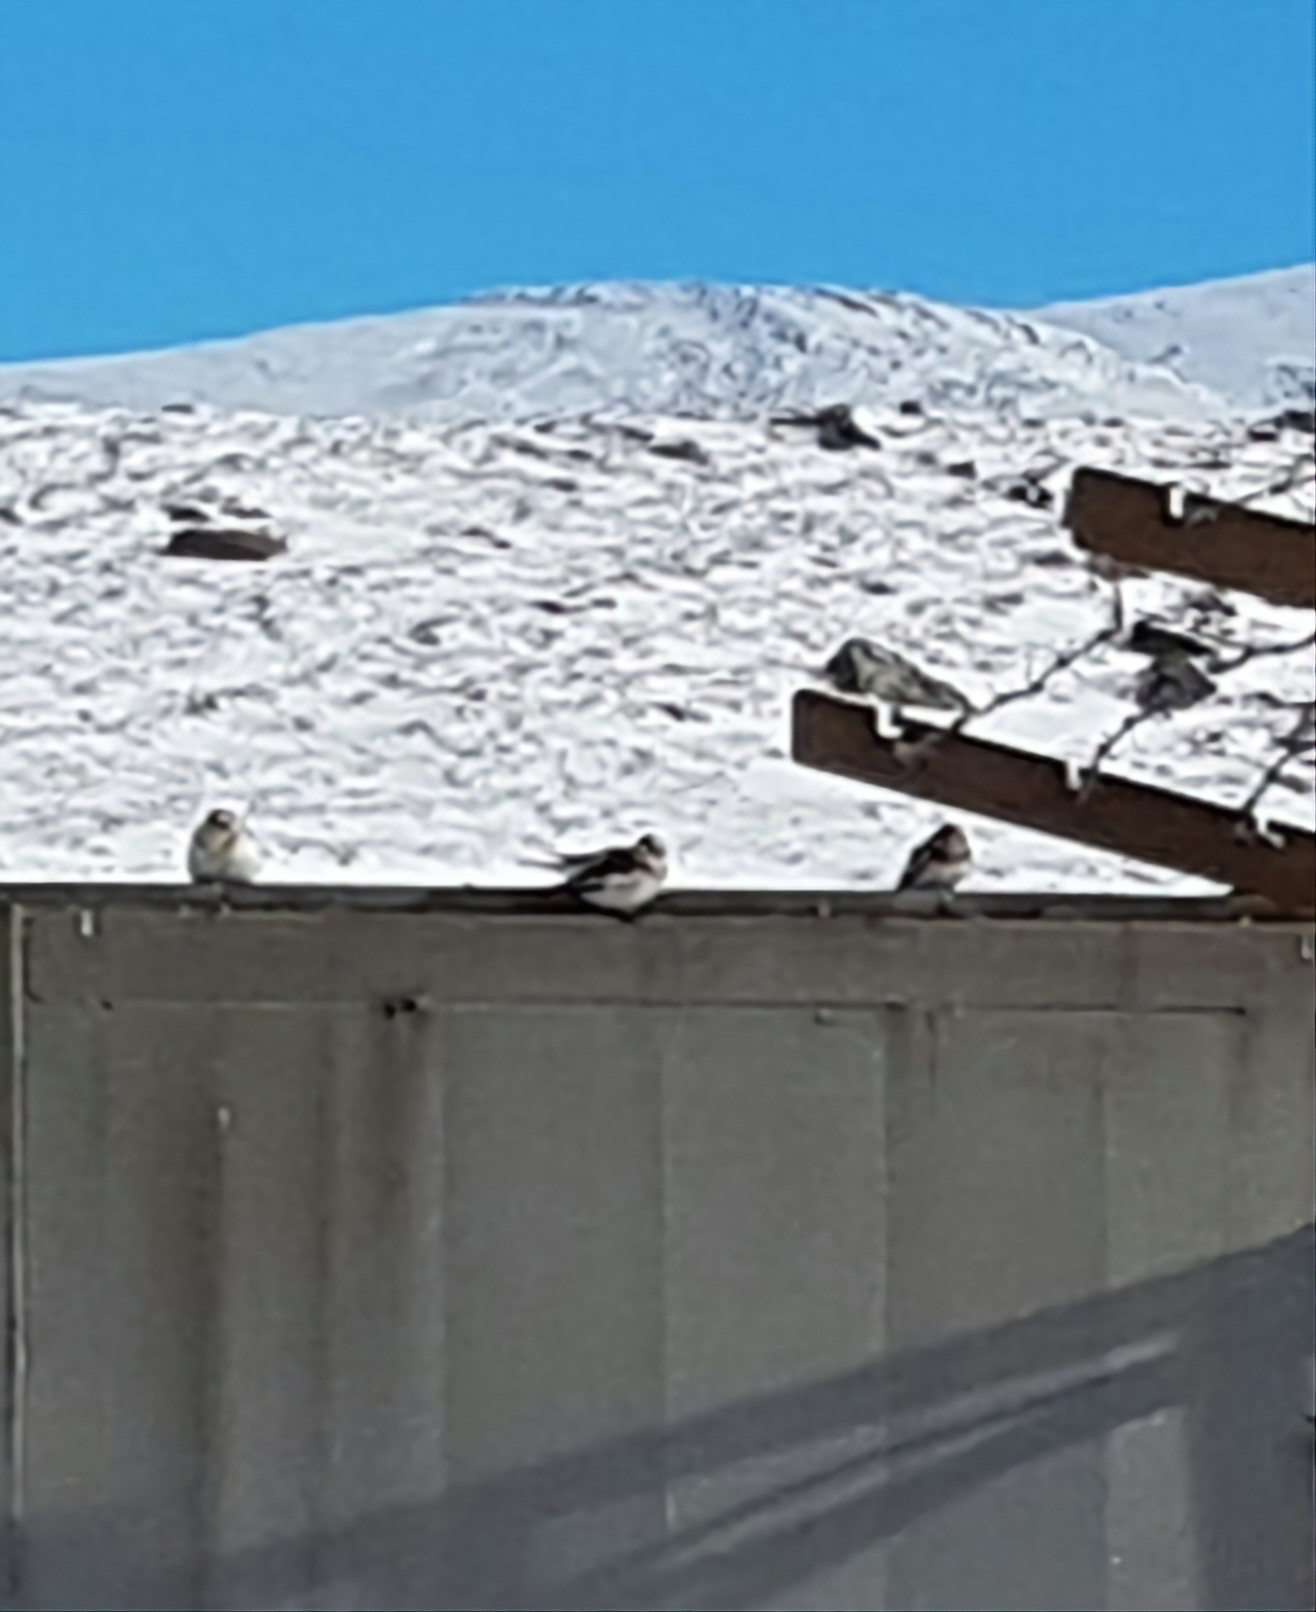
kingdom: Animalia
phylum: Chordata
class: Aves
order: Passeriformes
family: Calcariidae
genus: Plectrophenax
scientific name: Plectrophenax nivalis
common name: Snow bunting
